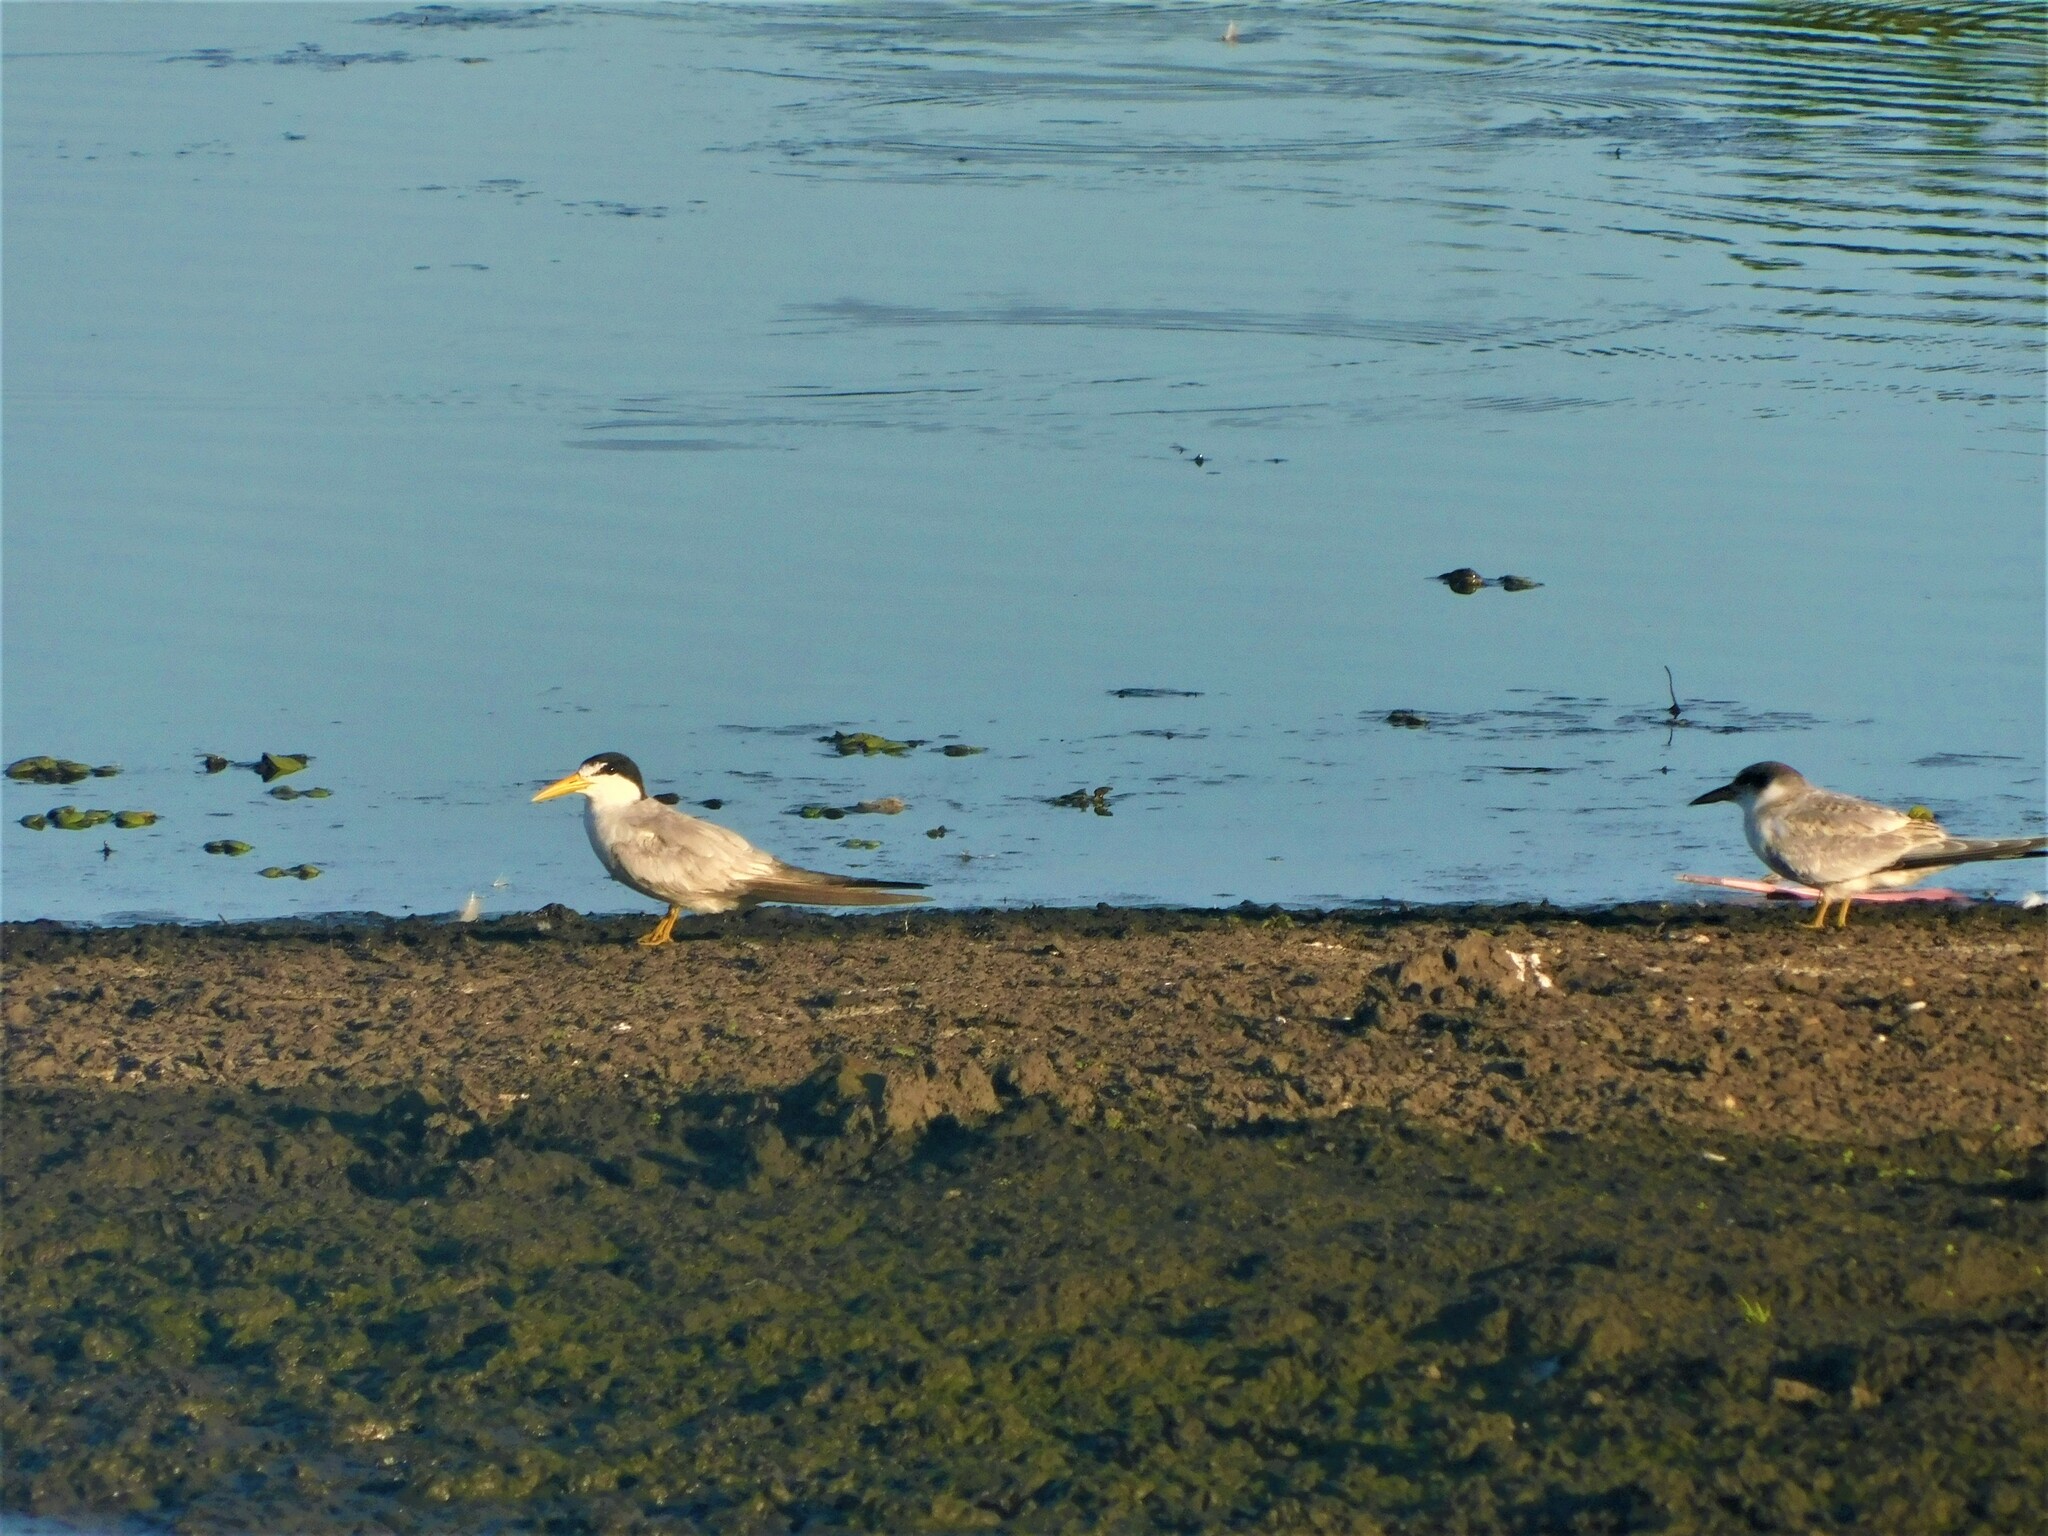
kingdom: Animalia
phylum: Chordata
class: Aves
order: Charadriiformes
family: Laridae
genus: Sternula
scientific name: Sternula superciliaris
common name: Yellow-billed tern
